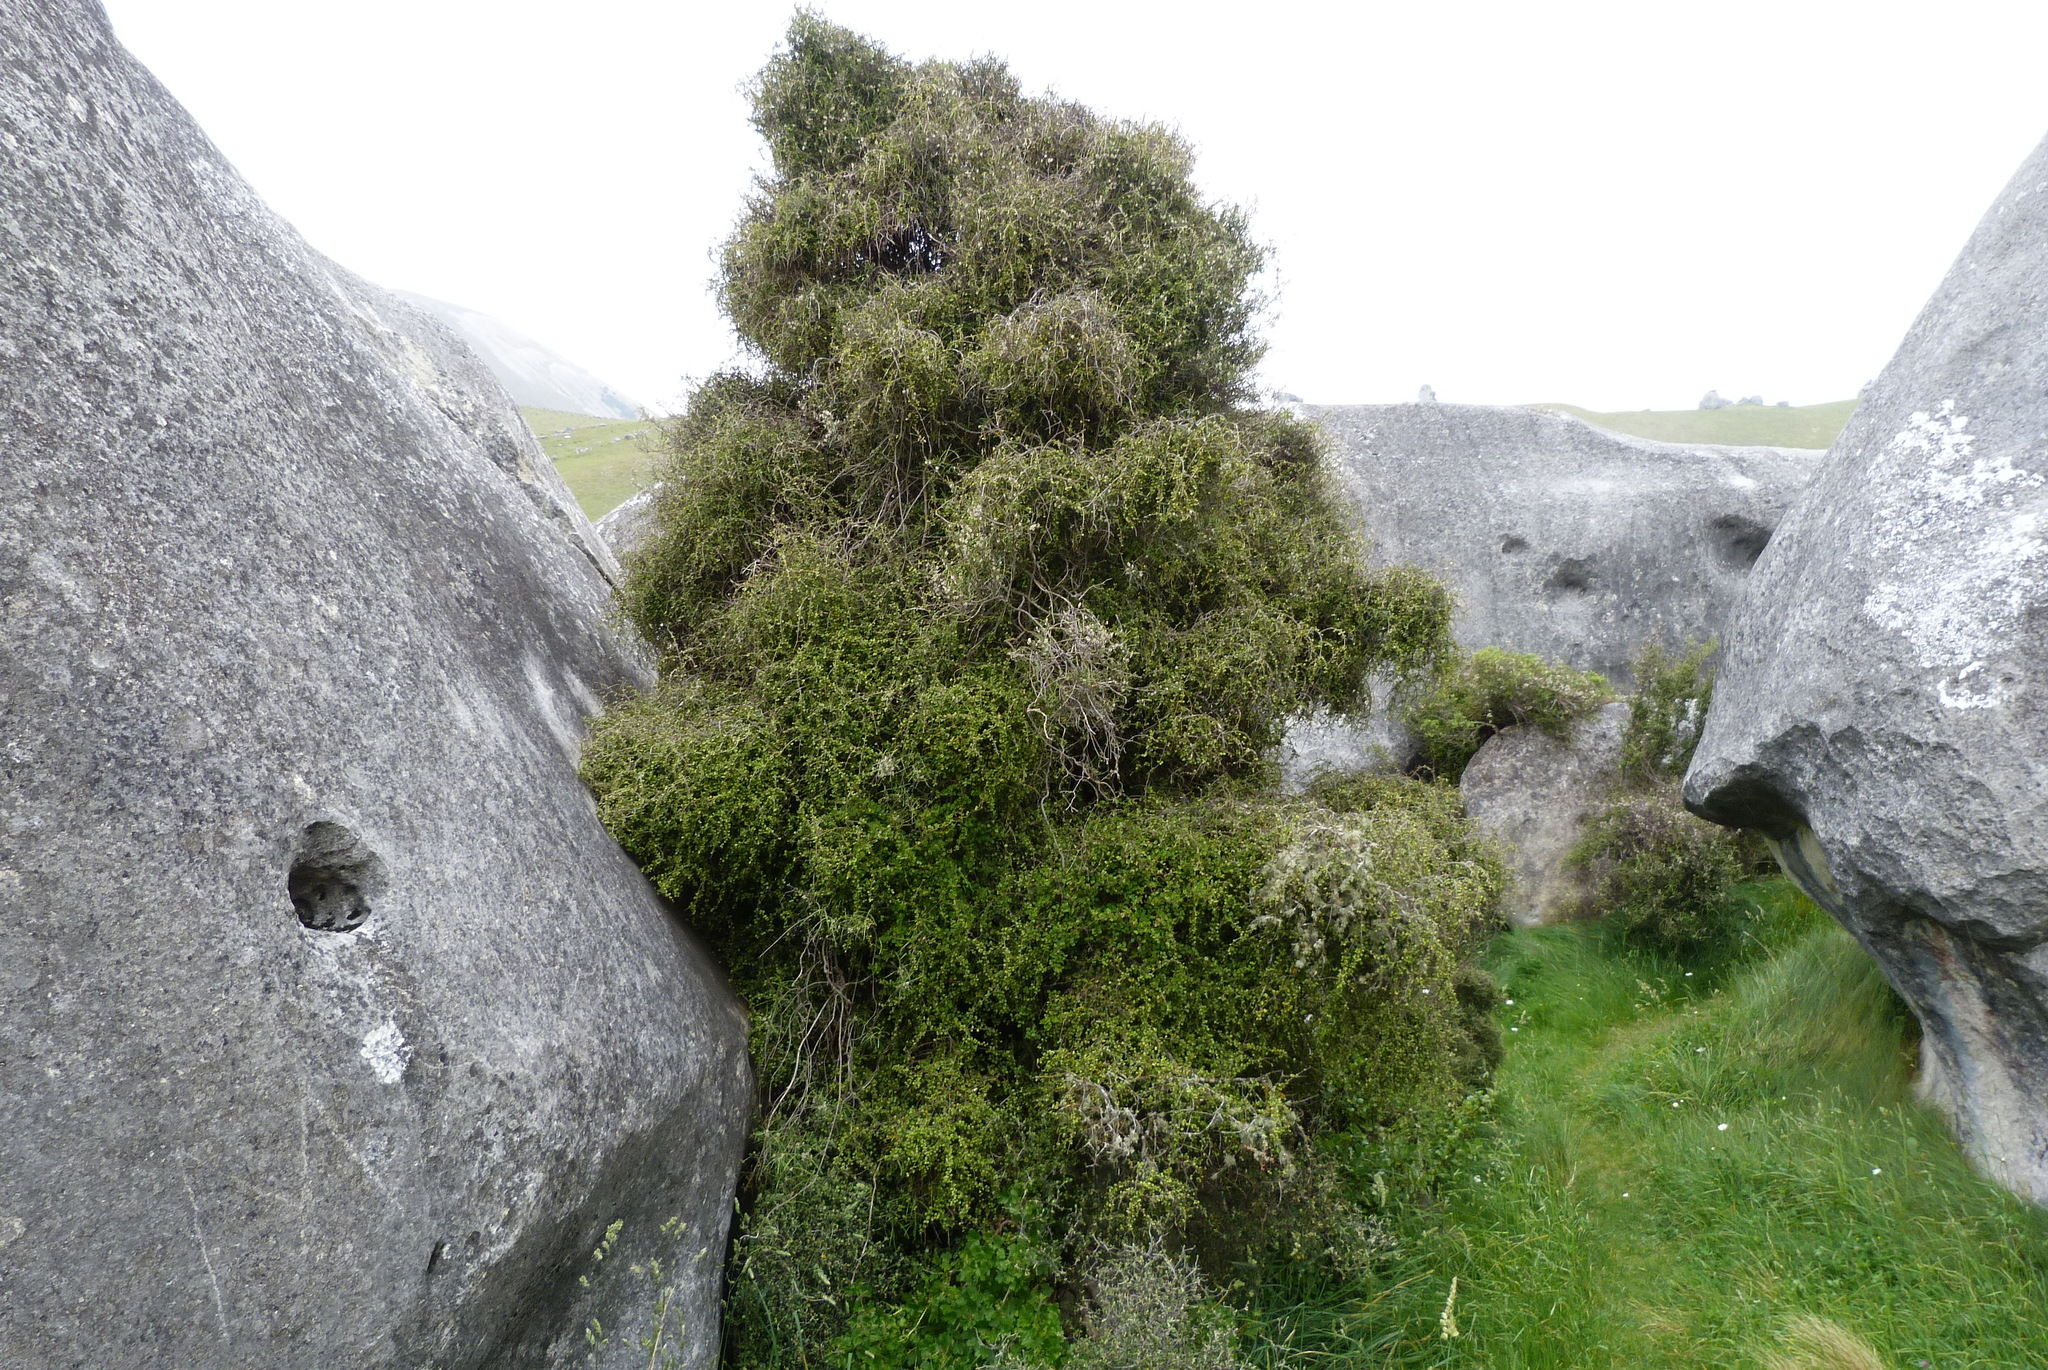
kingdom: Plantae
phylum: Tracheophyta
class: Magnoliopsida
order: Ericales
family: Primulaceae
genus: Myrsine
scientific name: Myrsine divaricata
